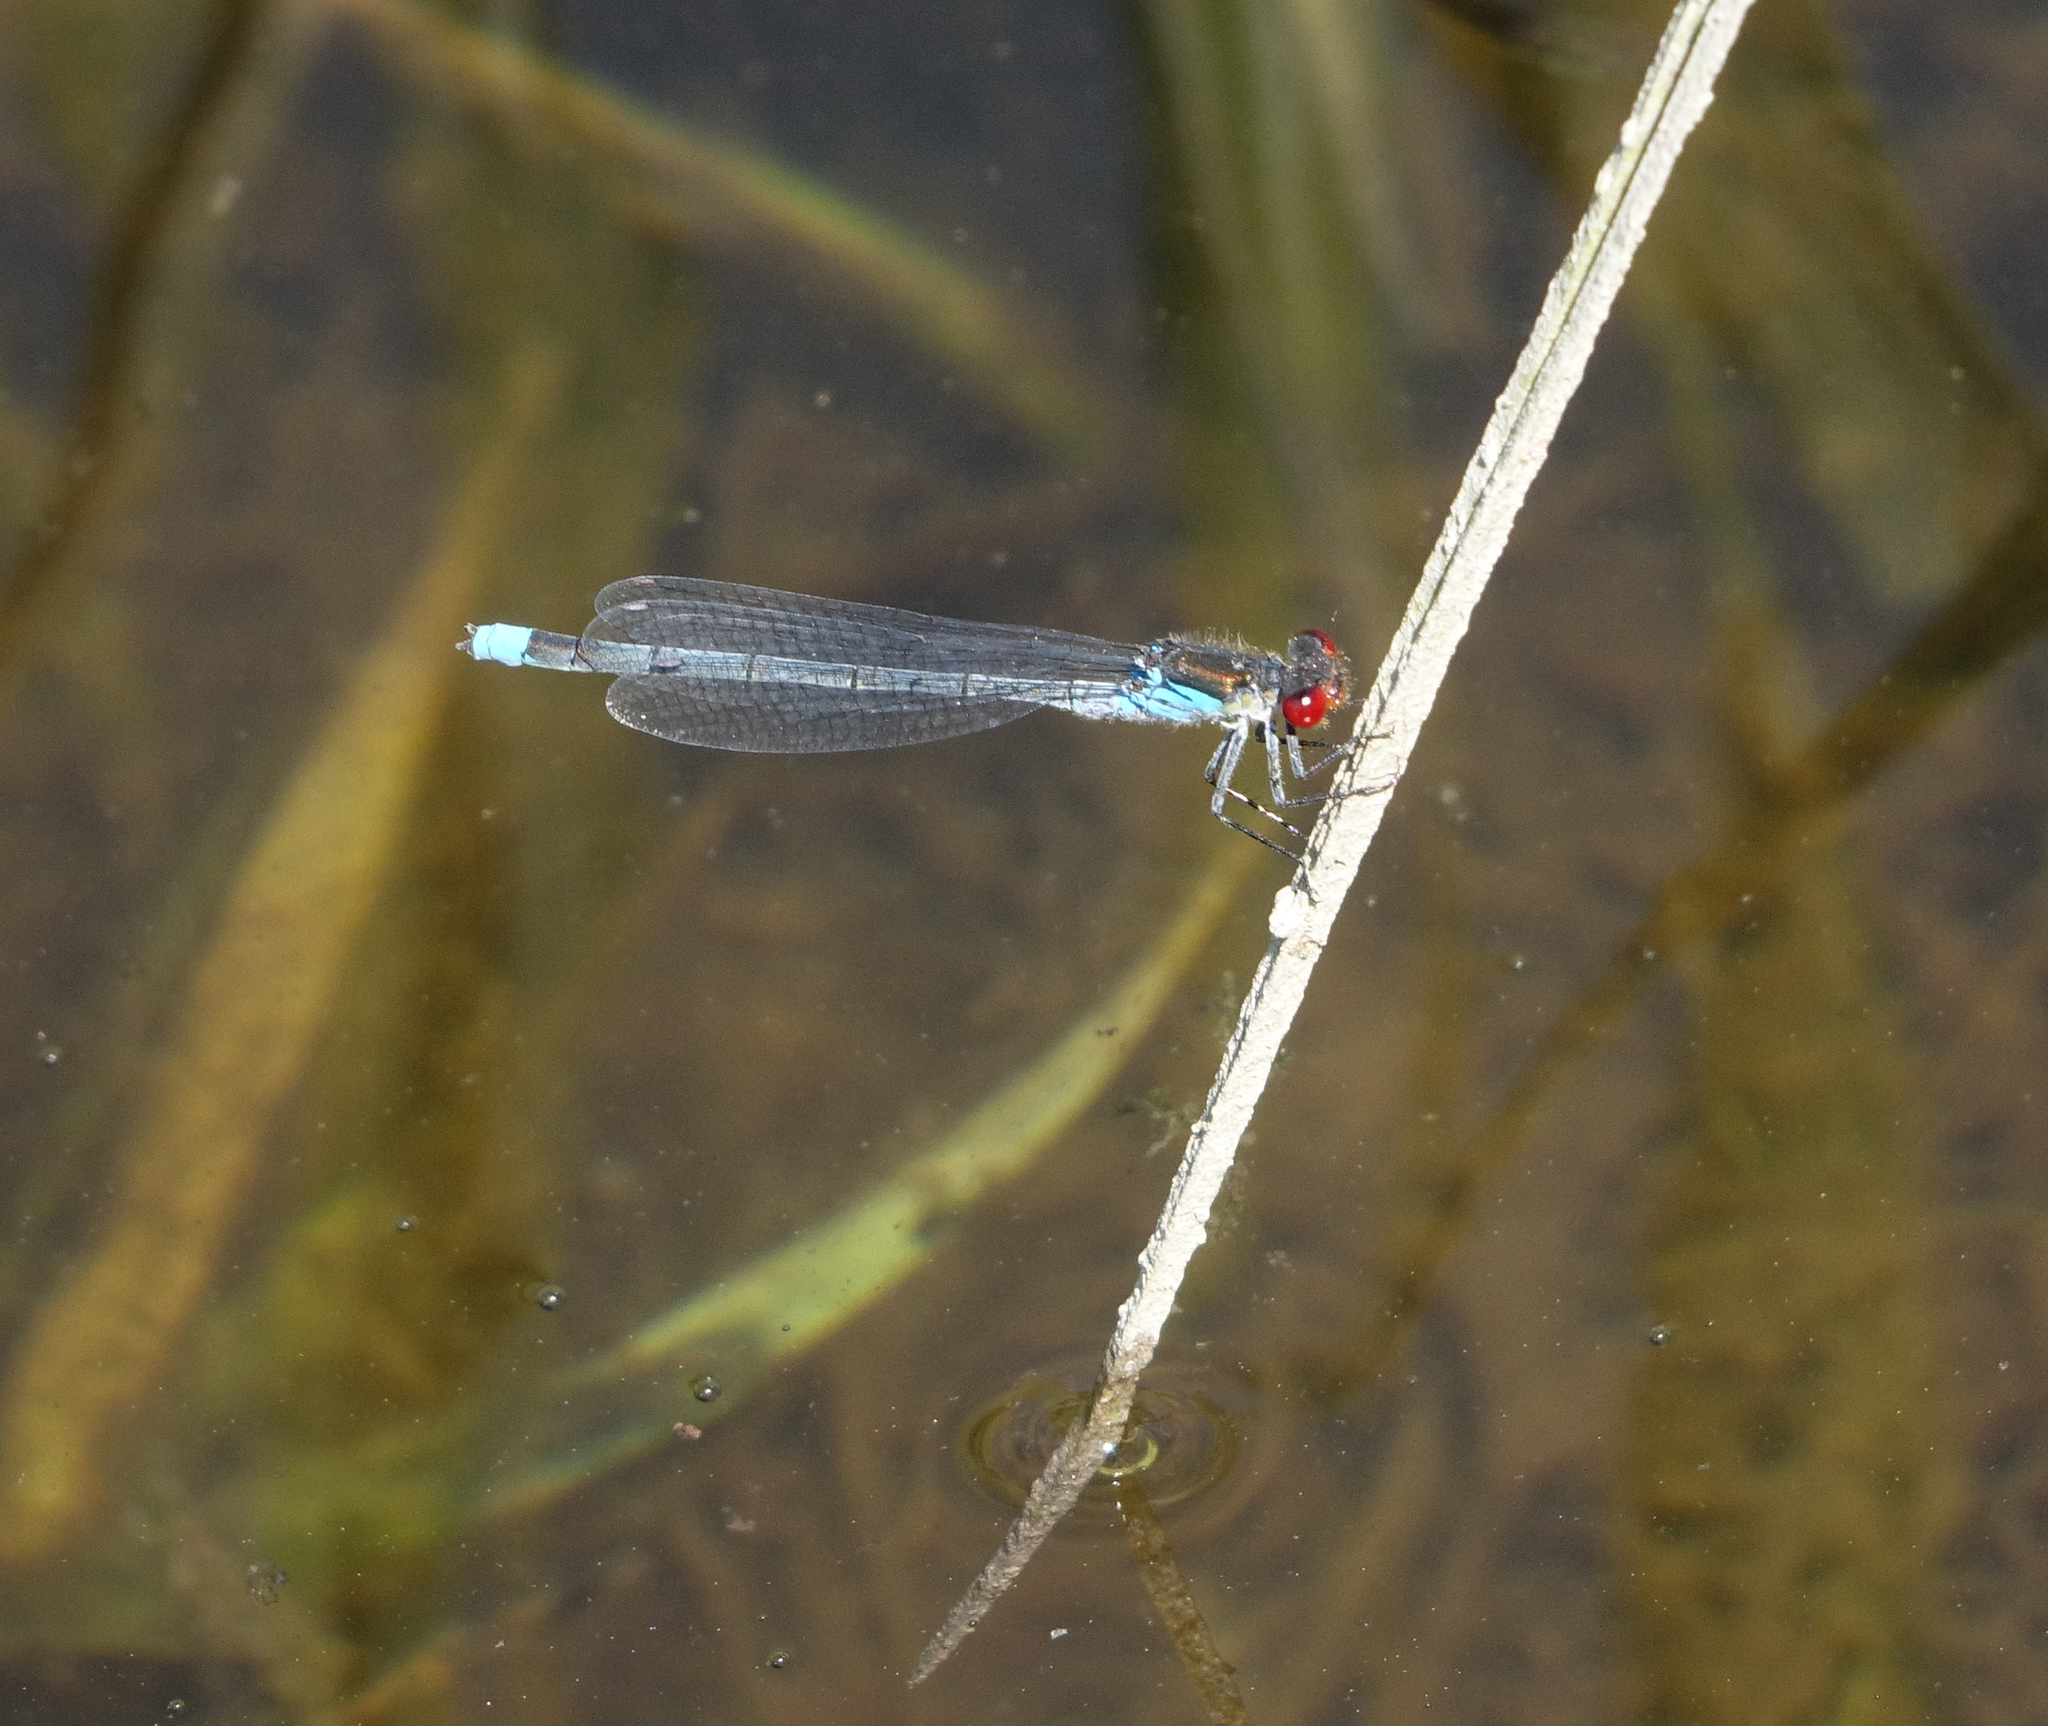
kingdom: Animalia
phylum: Arthropoda
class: Insecta
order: Odonata
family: Coenagrionidae
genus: Erythromma
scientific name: Erythromma najas
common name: Red-eyed damselfly
